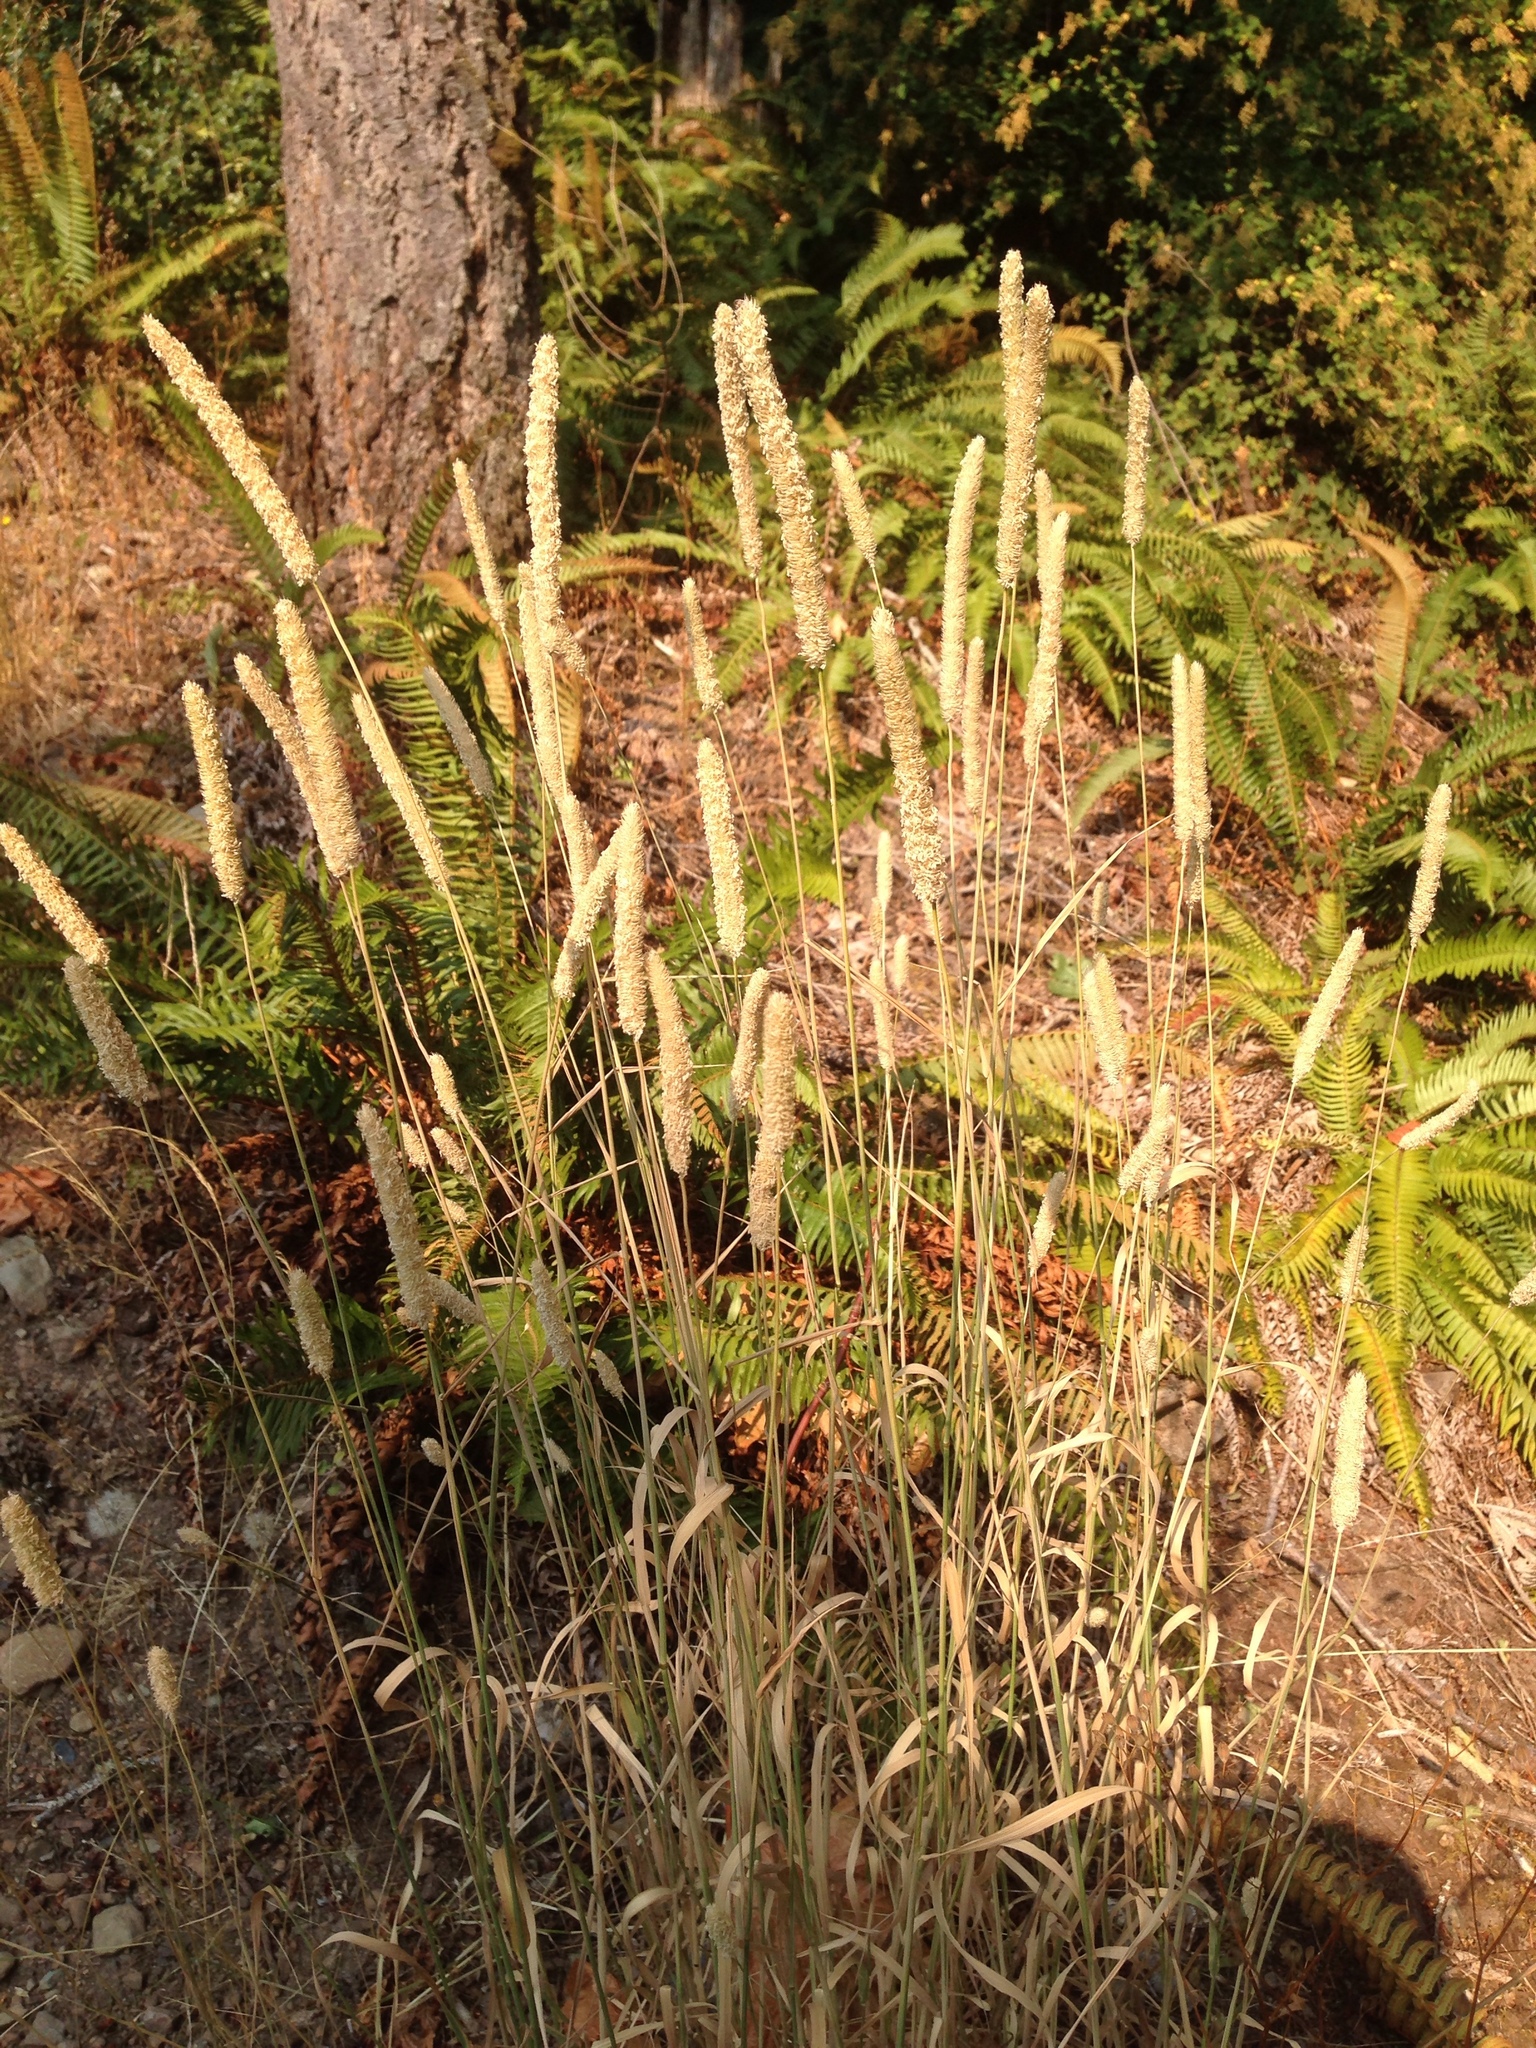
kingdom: Plantae
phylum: Tracheophyta
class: Liliopsida
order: Poales
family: Poaceae
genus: Phleum
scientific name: Phleum pratense
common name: Timothy grass
